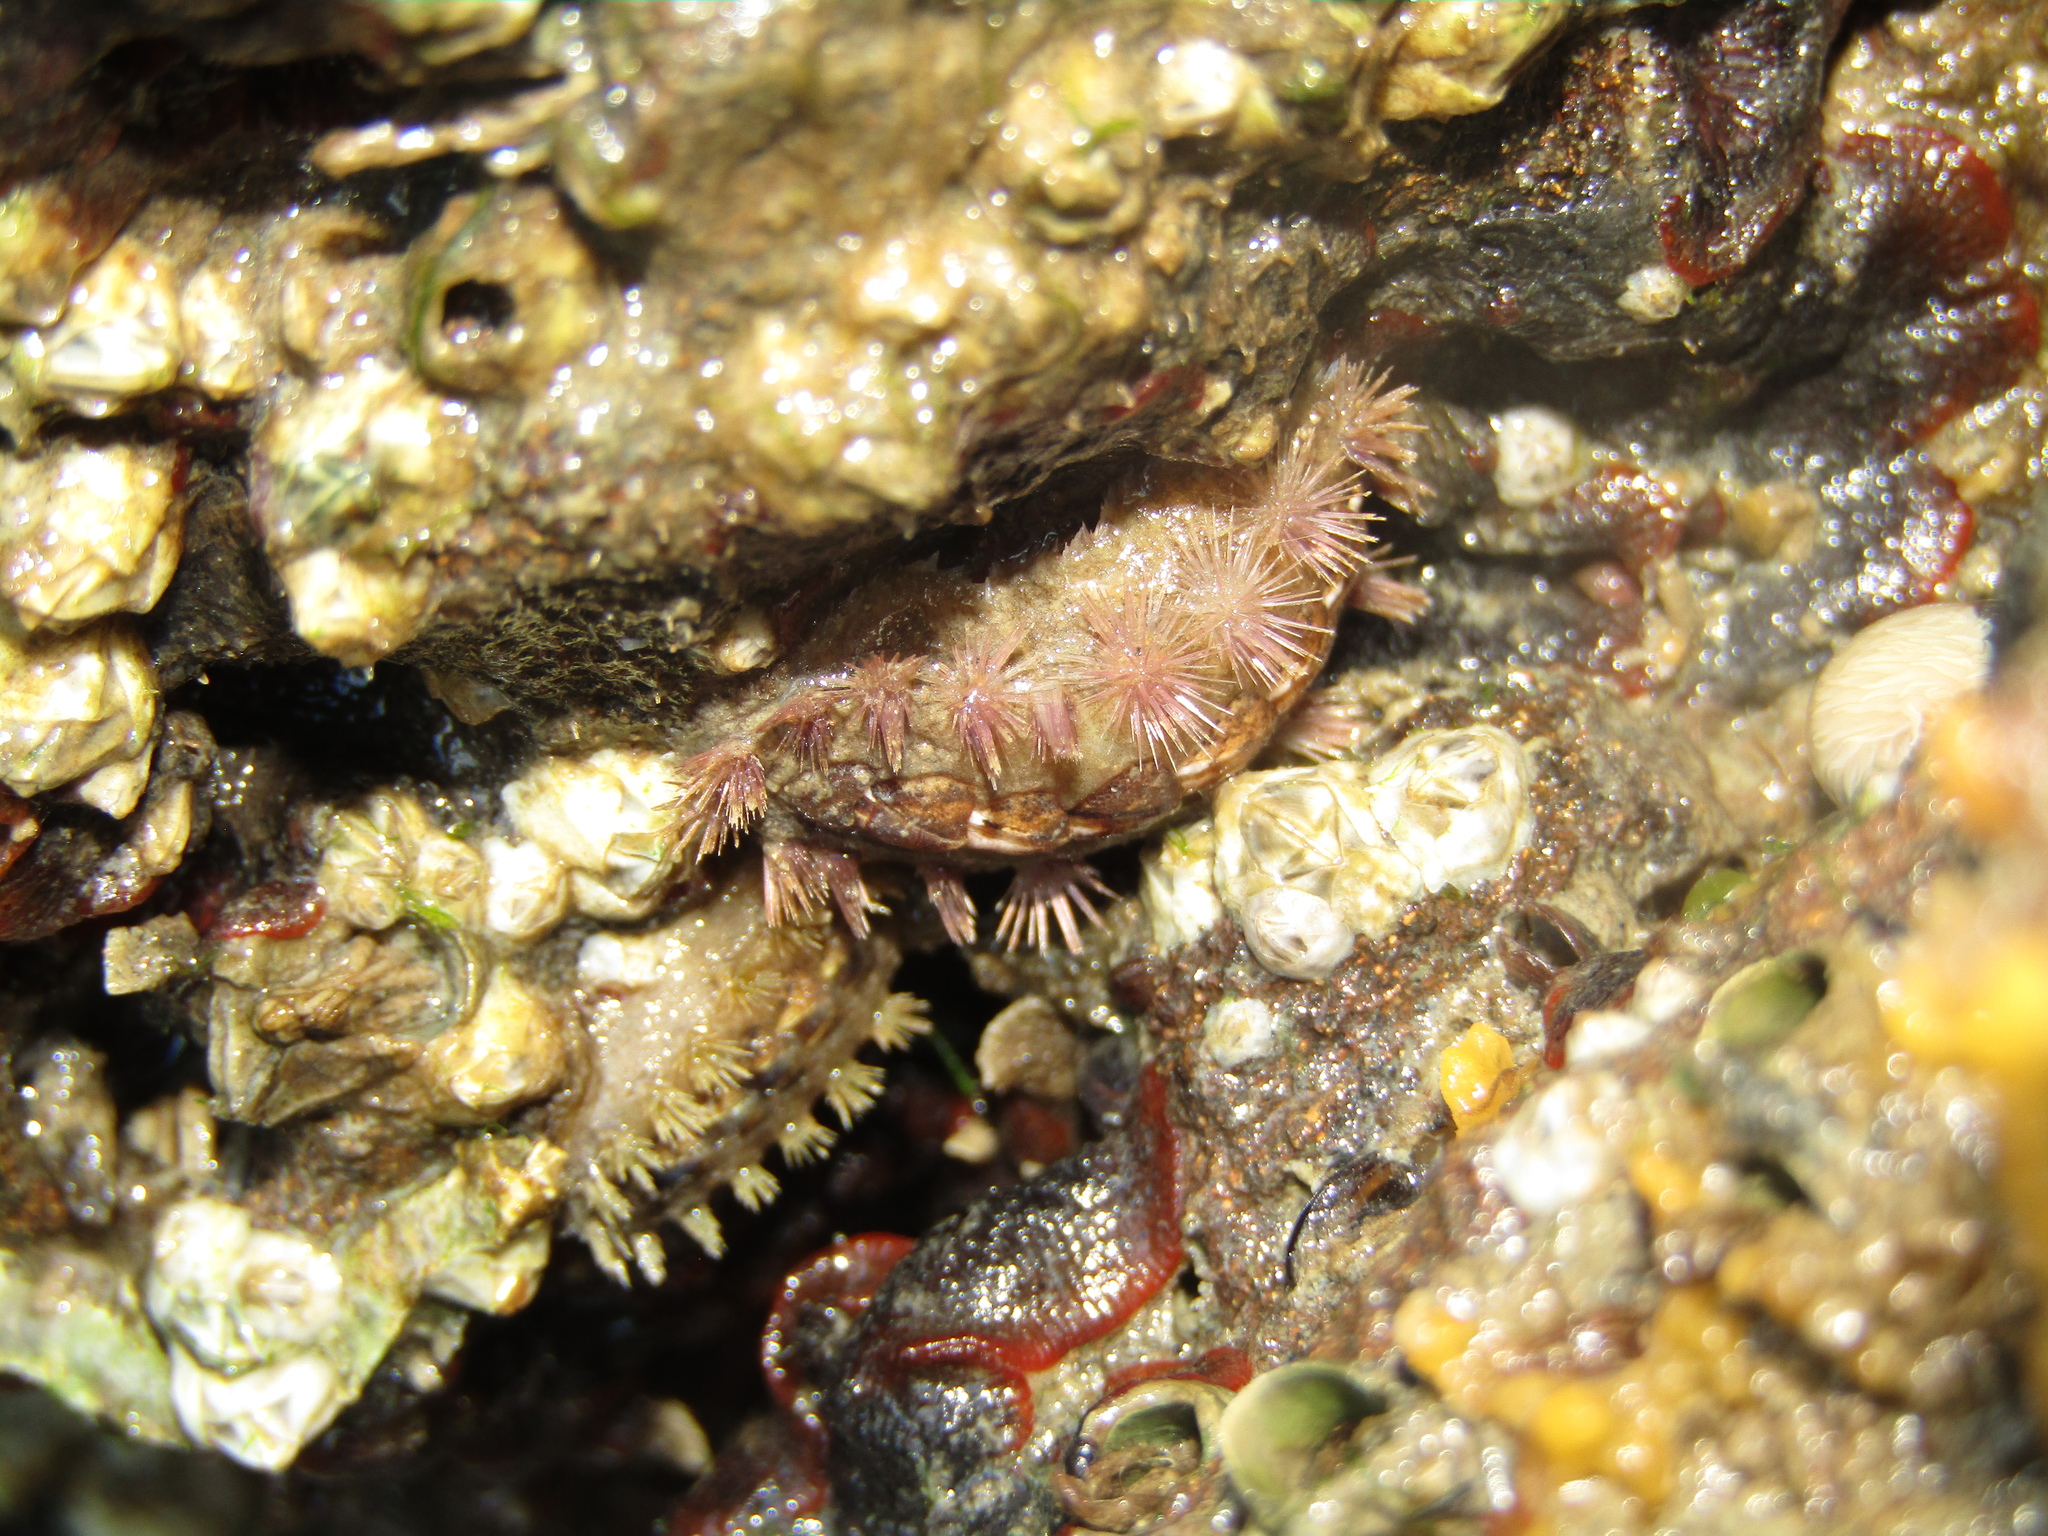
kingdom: Animalia
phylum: Mollusca
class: Polyplacophora
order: Chitonida
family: Acanthochitonidae
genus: Acanthochitona
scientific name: Acanthochitona zelandica
